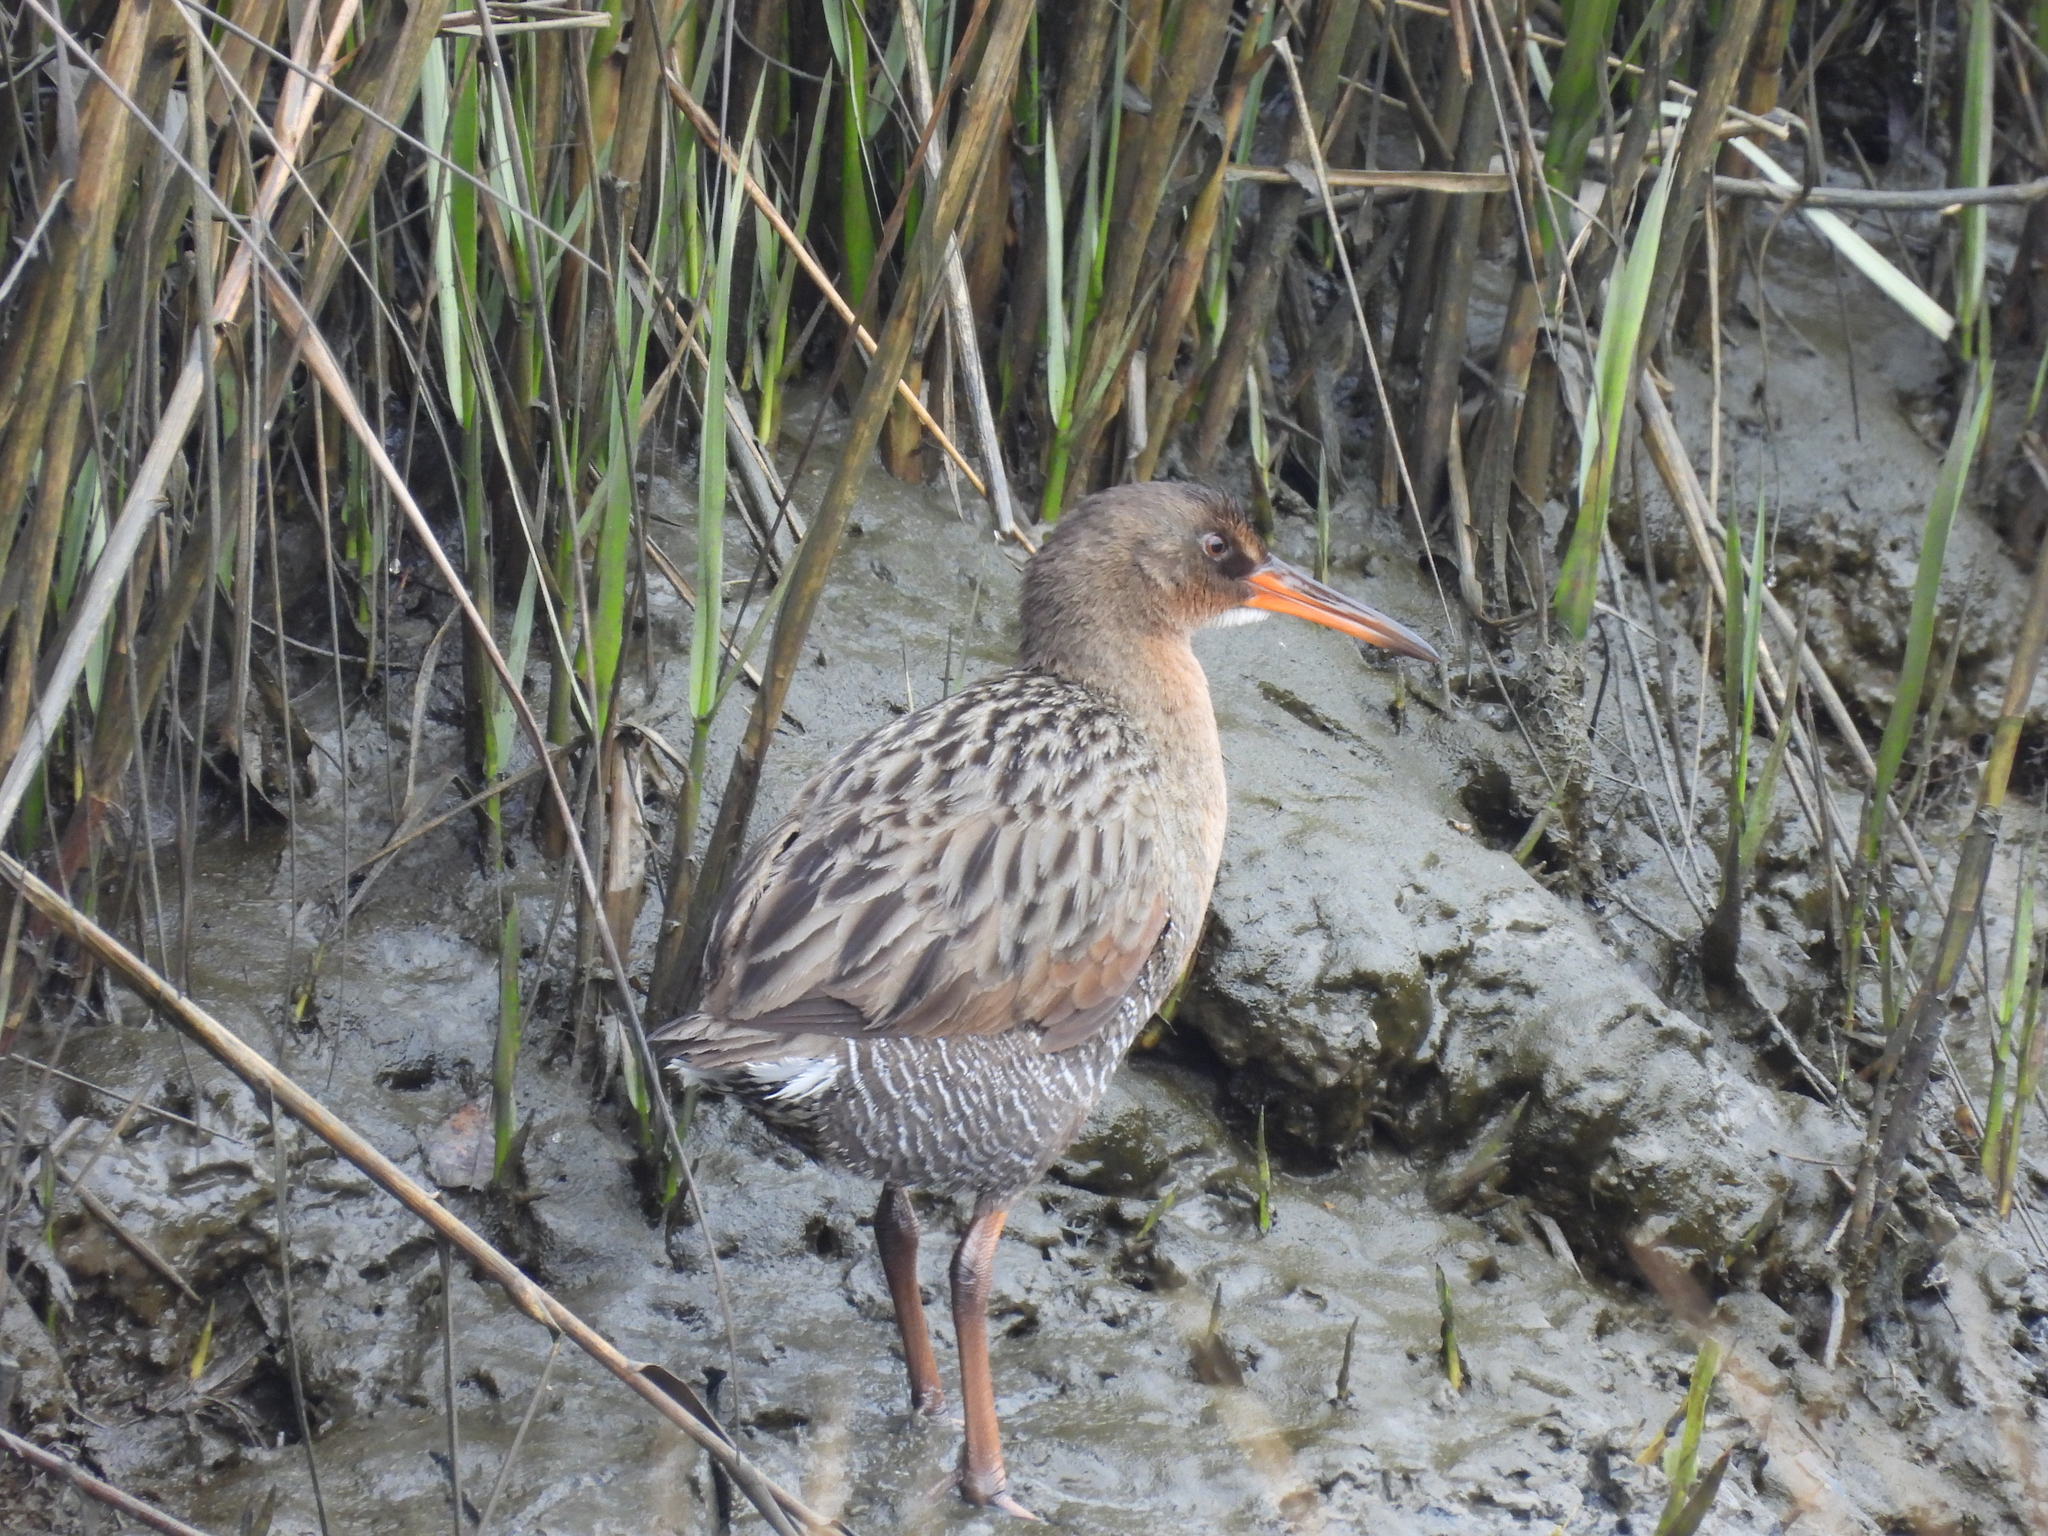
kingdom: Animalia
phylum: Chordata
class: Aves
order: Gruiformes
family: Rallidae
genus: Rallus
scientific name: Rallus obsoletus
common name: Ridgway's rail
